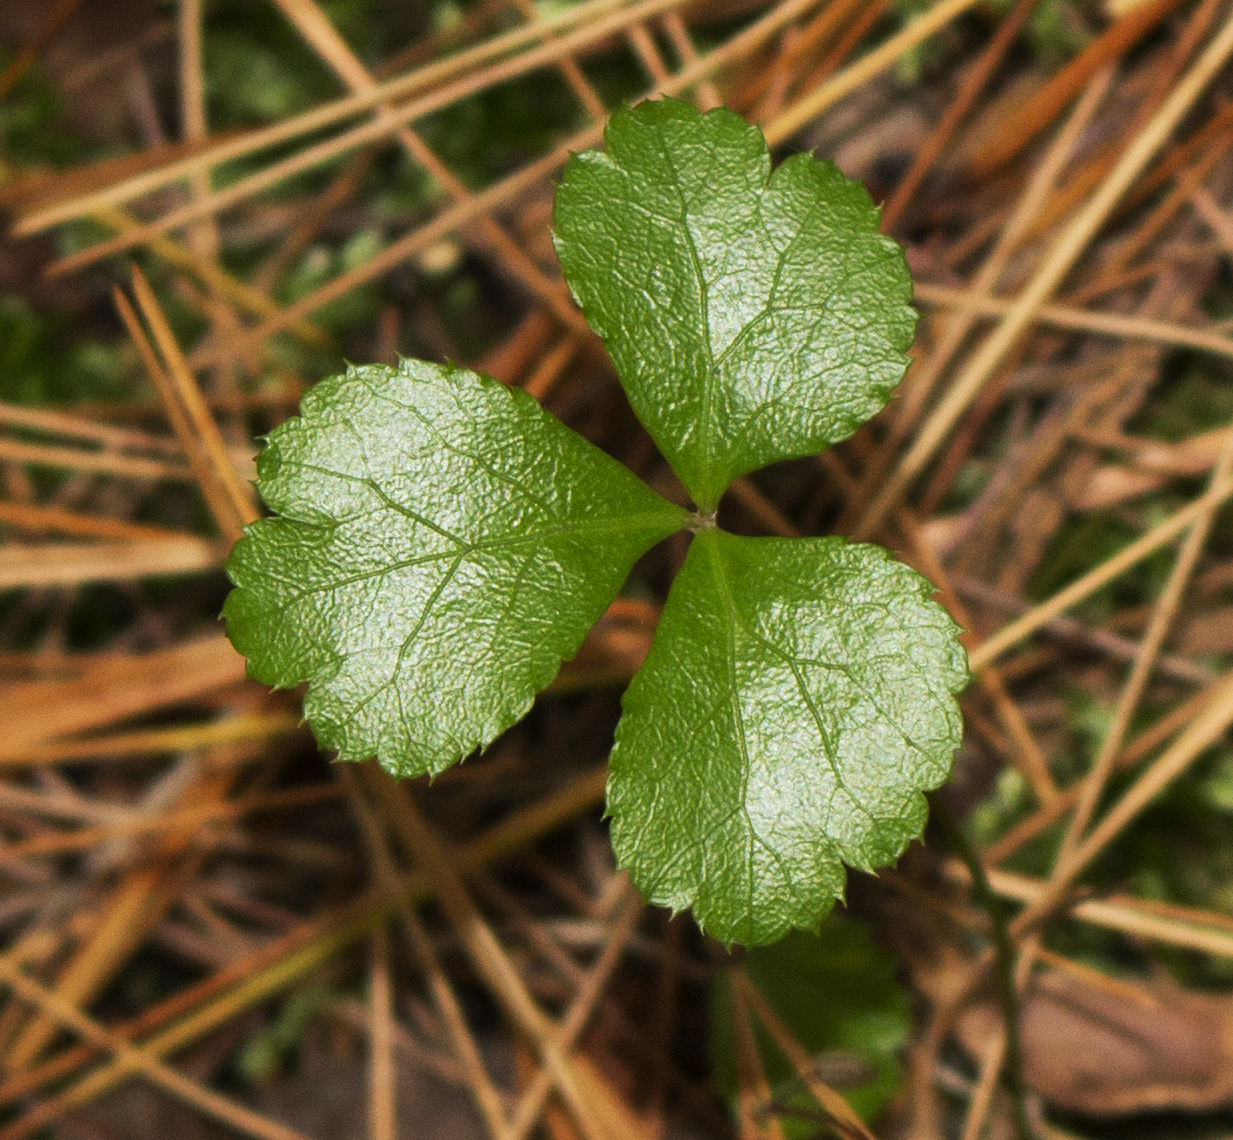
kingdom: Plantae
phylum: Tracheophyta
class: Magnoliopsida
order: Ranunculales
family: Ranunculaceae
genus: Coptis
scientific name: Coptis trifolia
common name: Canker-root
